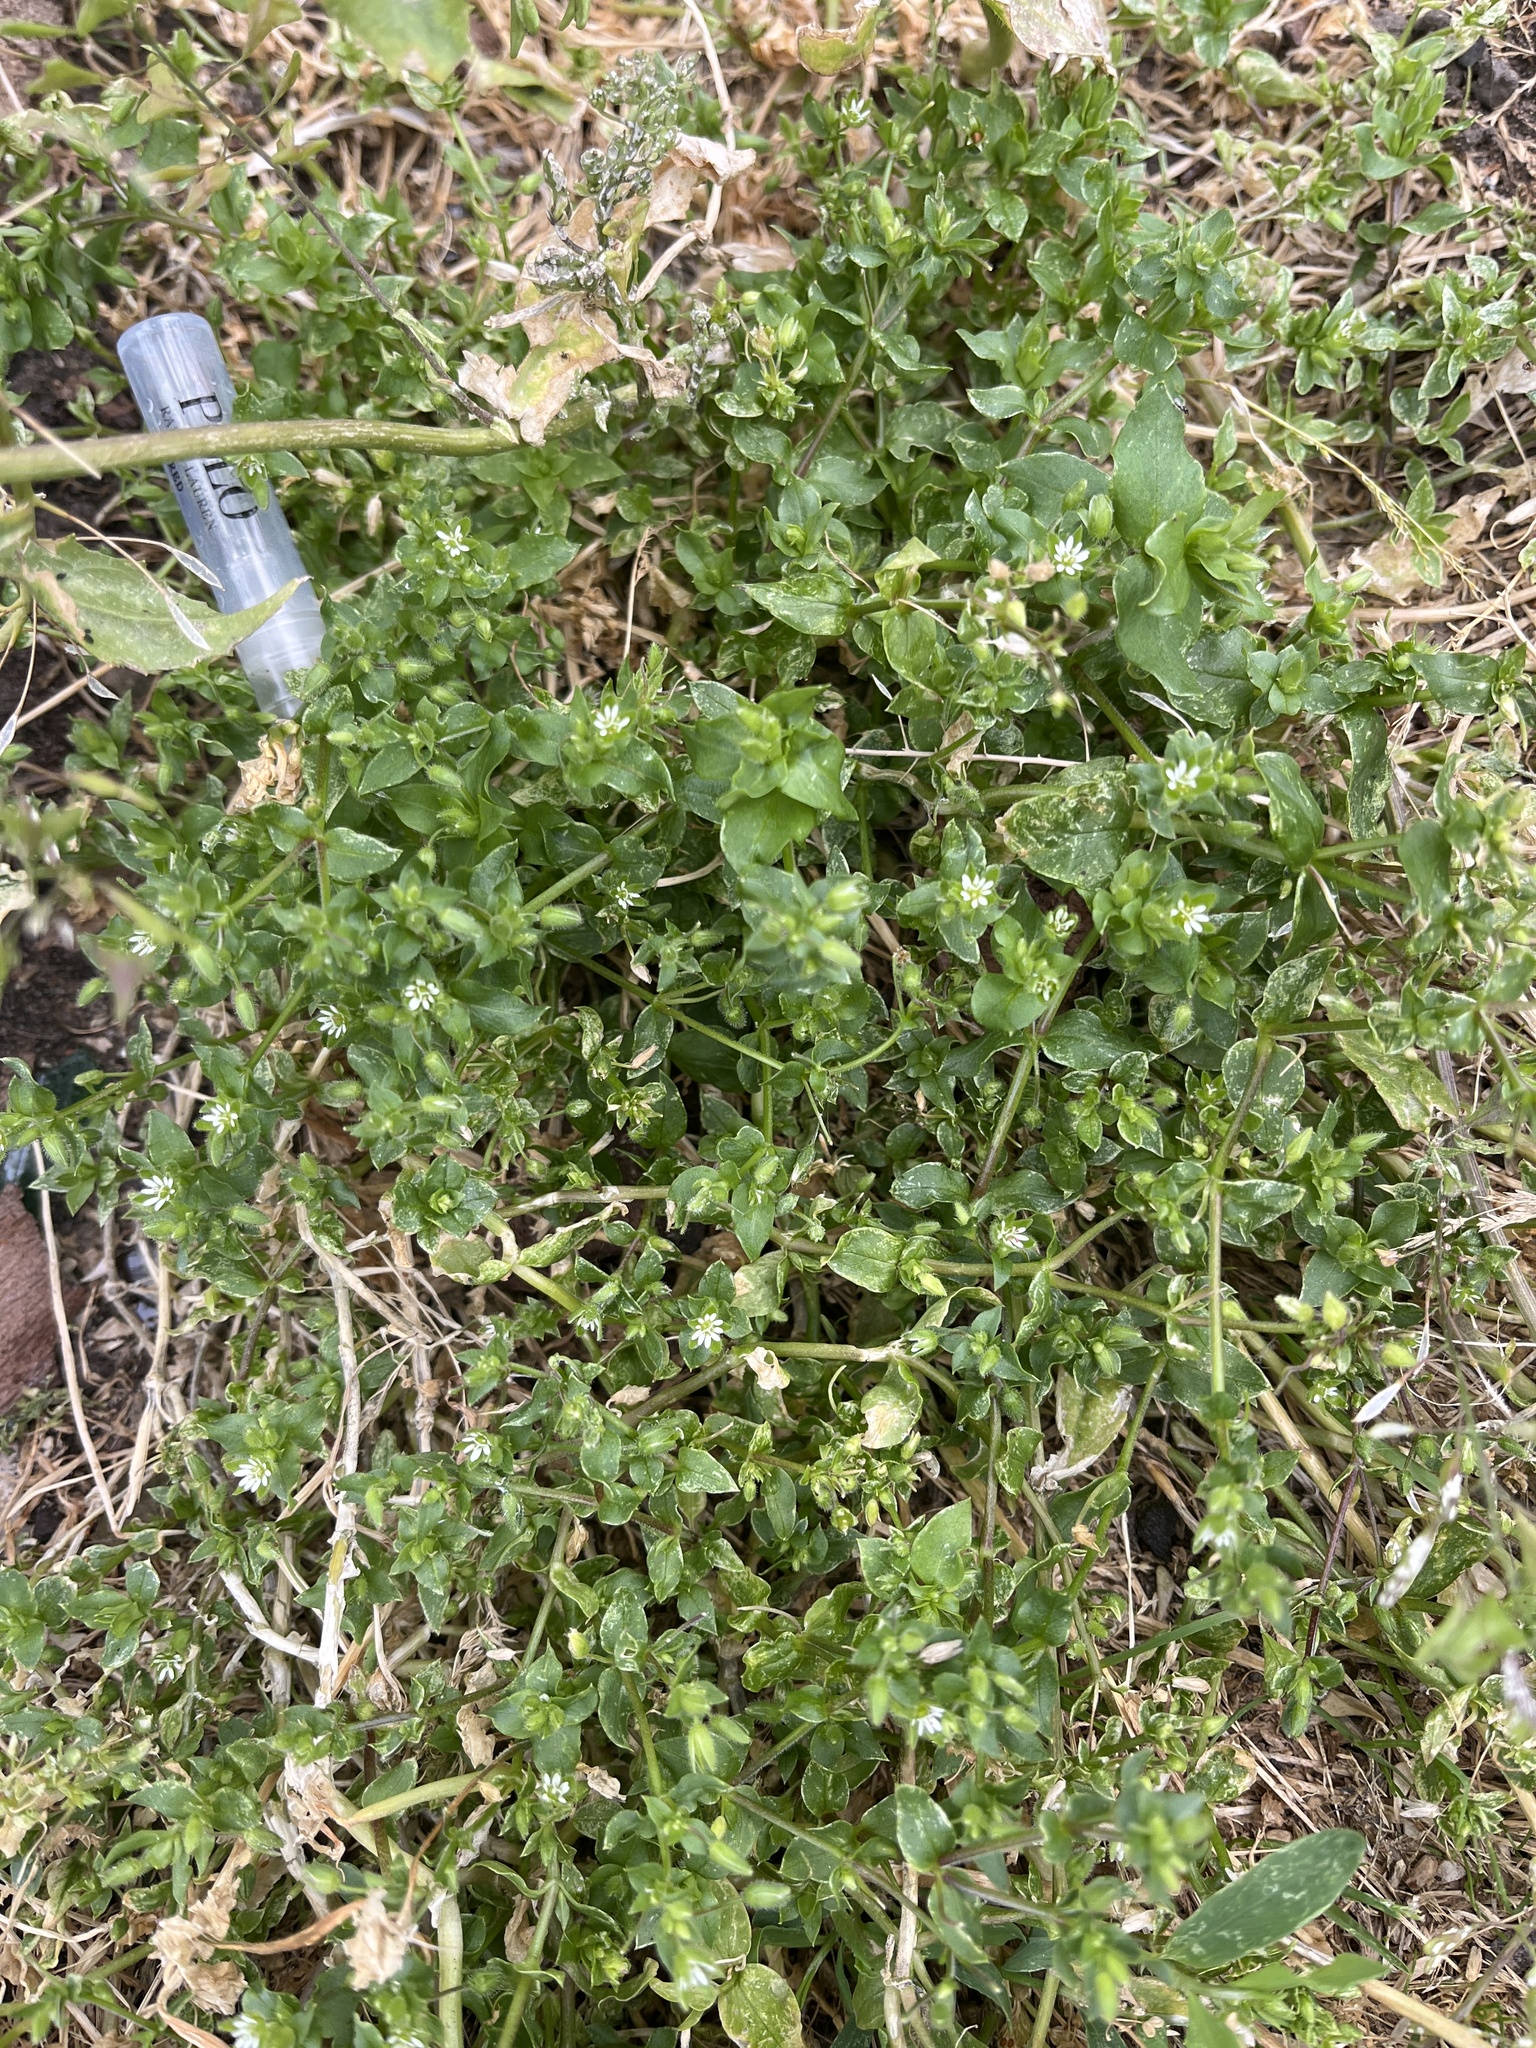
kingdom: Plantae
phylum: Tracheophyta
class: Magnoliopsida
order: Caryophyllales
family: Caryophyllaceae
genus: Stellaria
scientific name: Stellaria media
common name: Common chickweed
